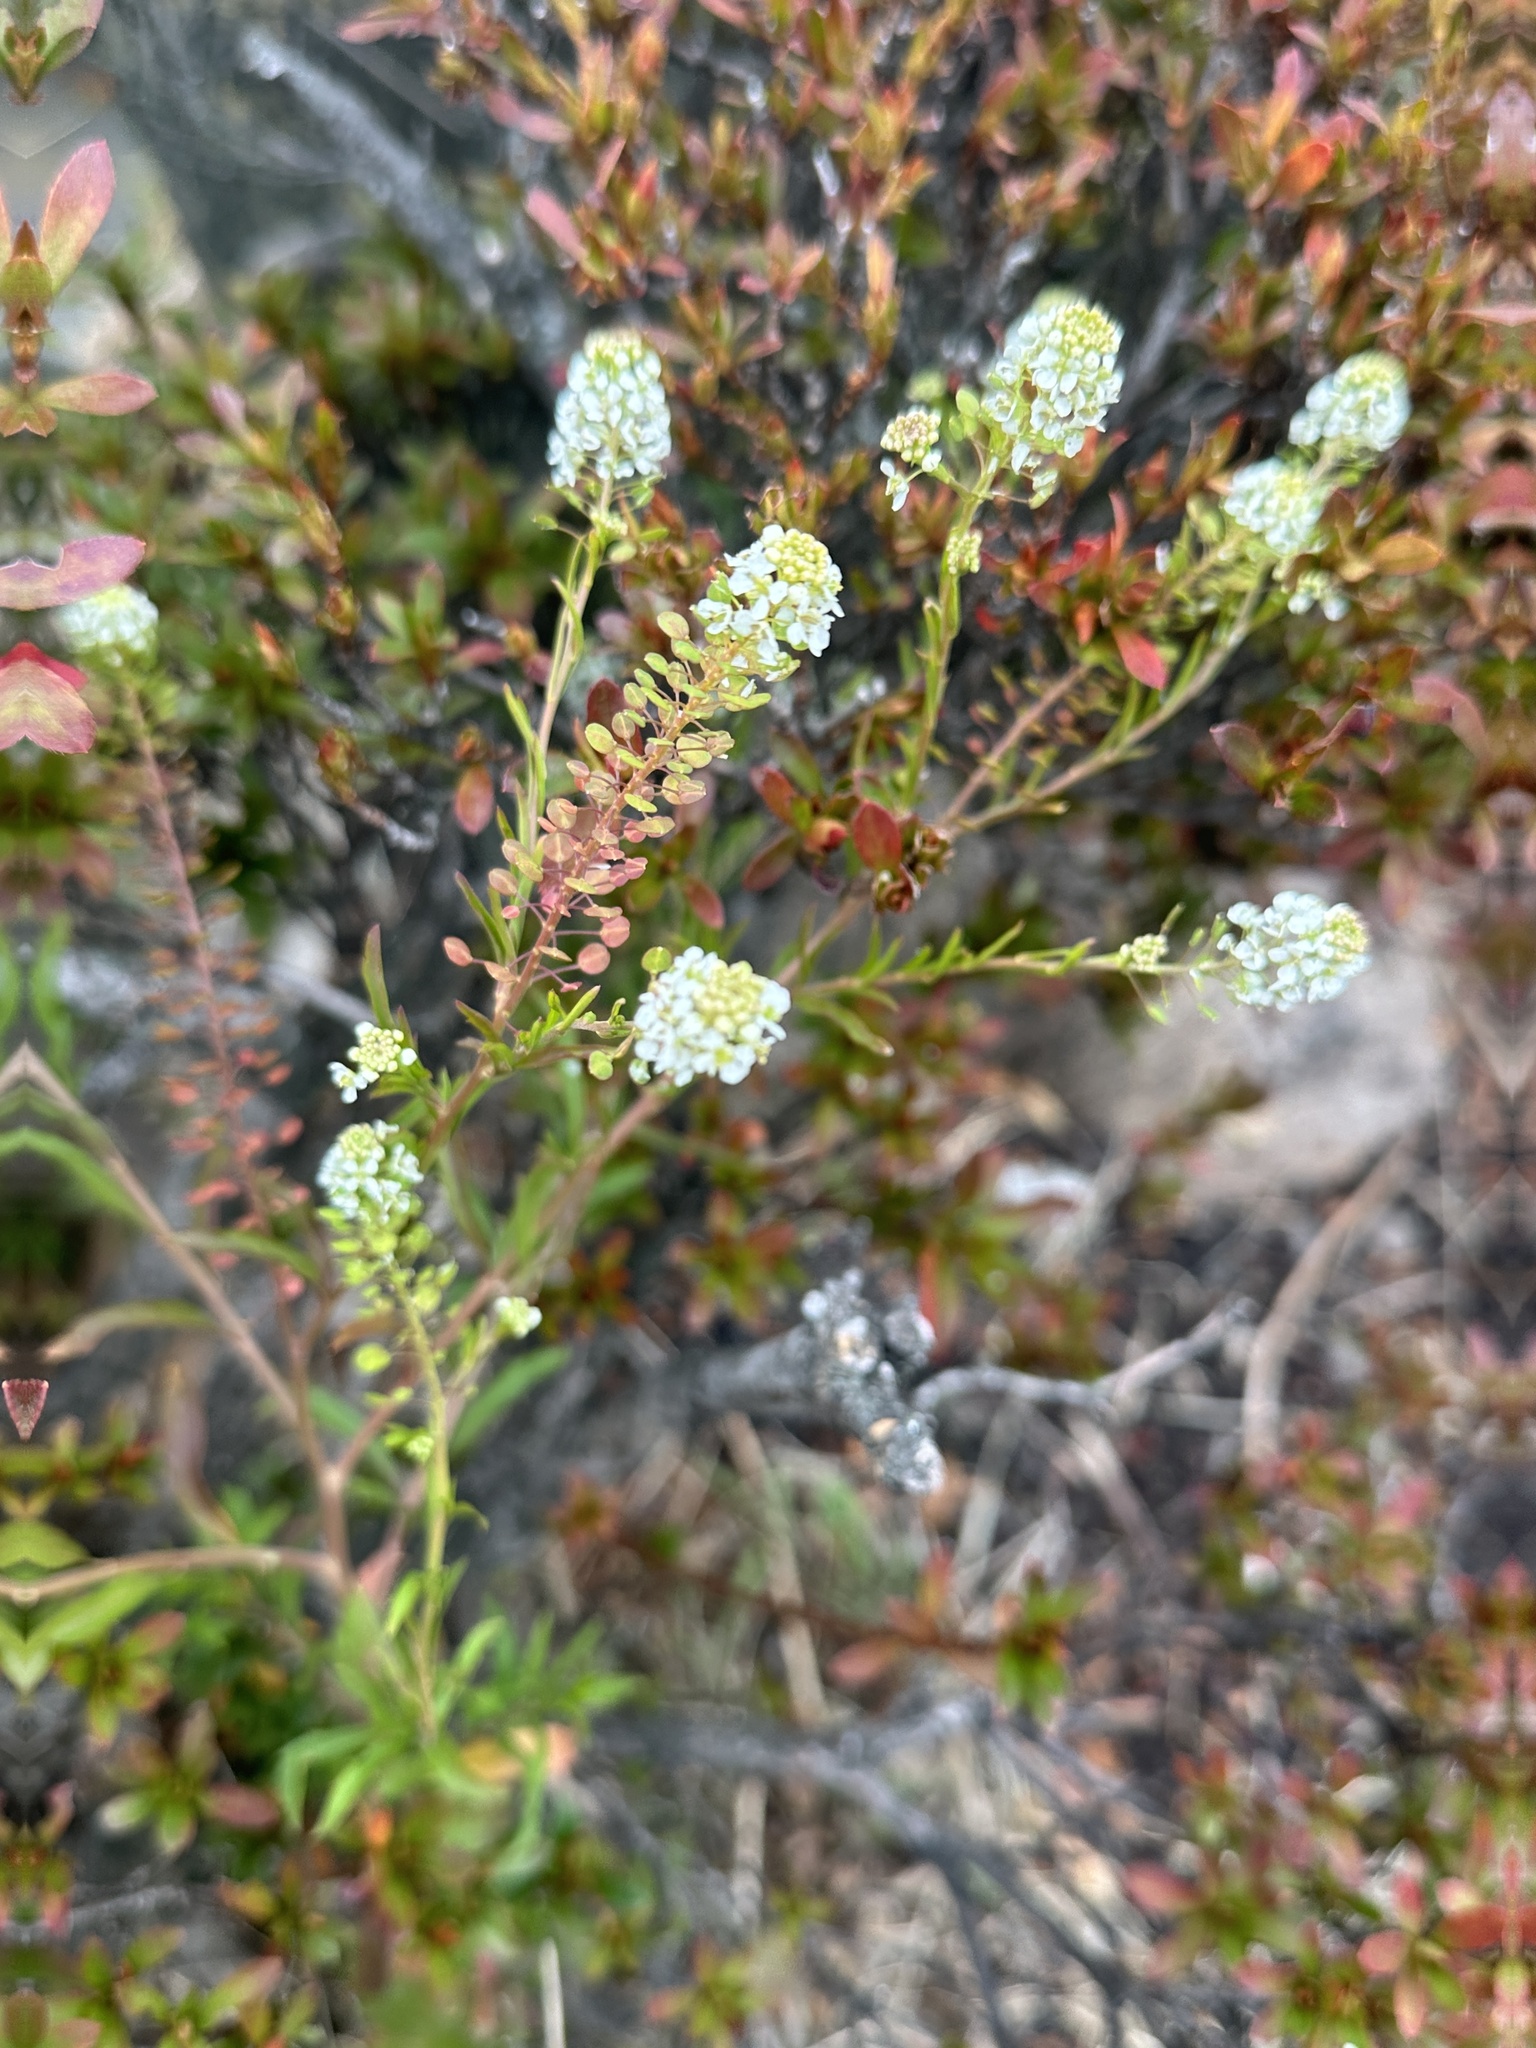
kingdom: Plantae
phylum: Tracheophyta
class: Magnoliopsida
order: Brassicales
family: Brassicaceae
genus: Lepidium
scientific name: Lepidium virginicum
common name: Least pepperwort
